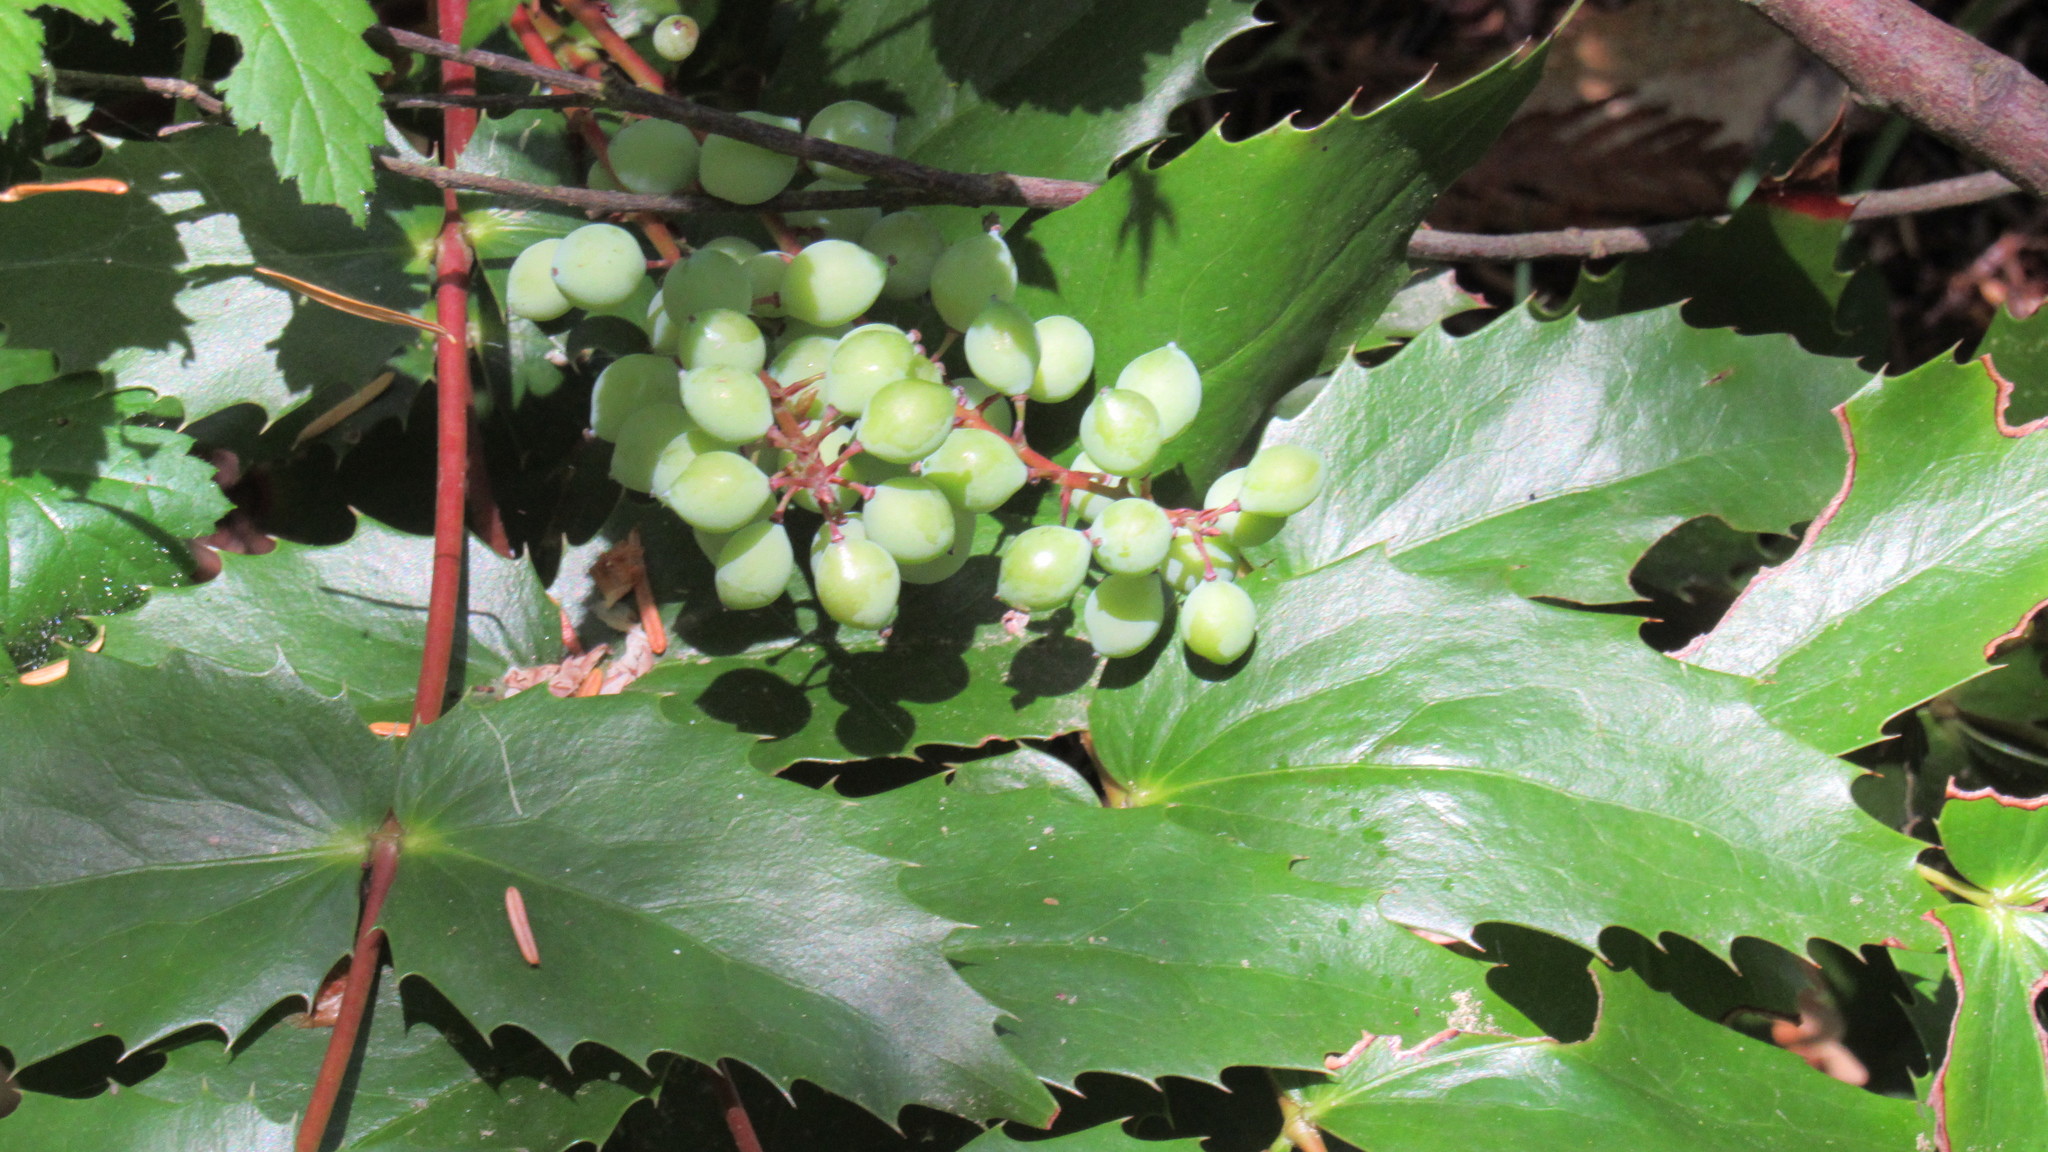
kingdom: Plantae
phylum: Tracheophyta
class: Magnoliopsida
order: Ranunculales
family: Berberidaceae
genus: Mahonia
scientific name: Mahonia nervosa
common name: Cascade oregon-grape
